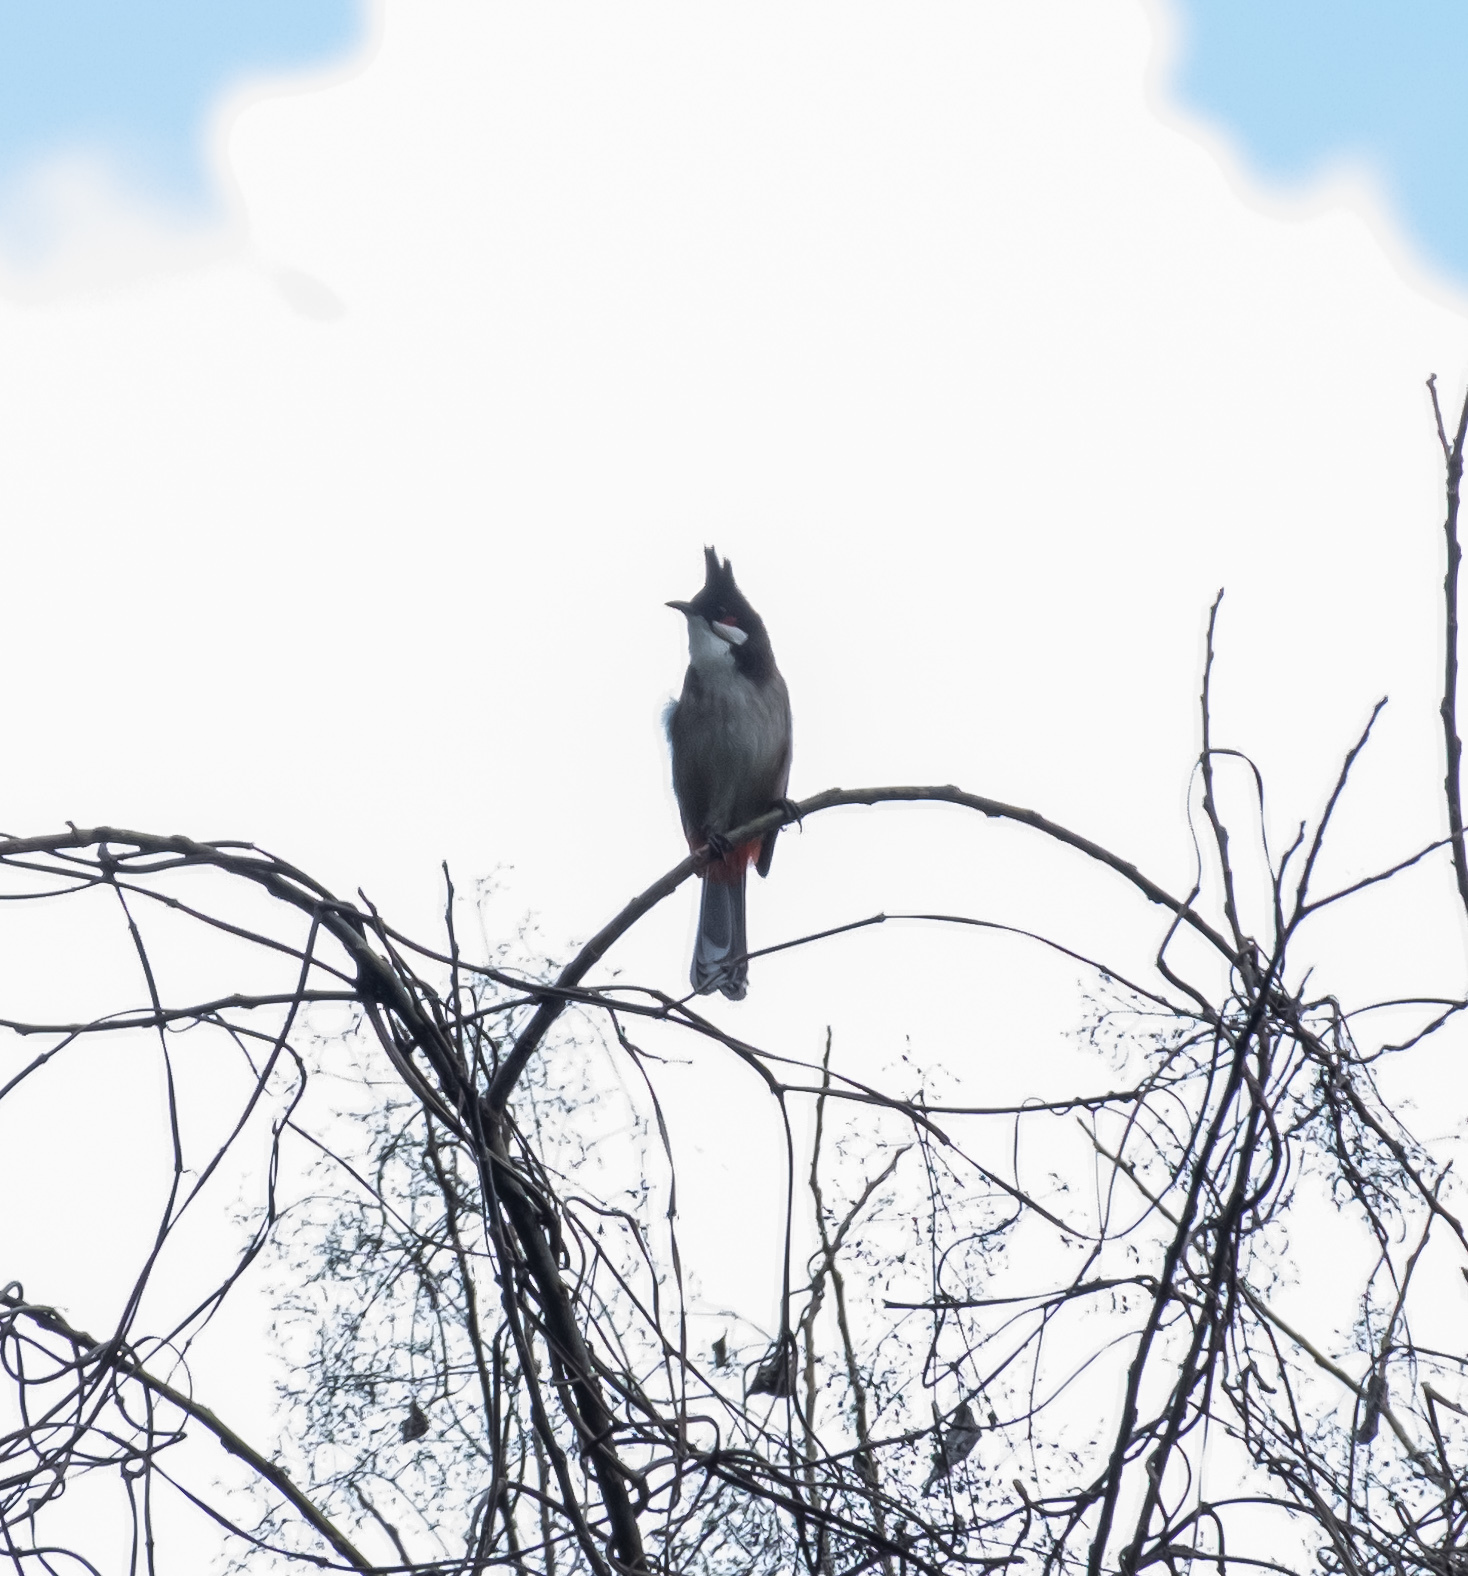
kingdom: Animalia
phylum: Chordata
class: Aves
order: Passeriformes
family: Pycnonotidae
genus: Pycnonotus
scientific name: Pycnonotus jocosus
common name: Red-whiskered bulbul
